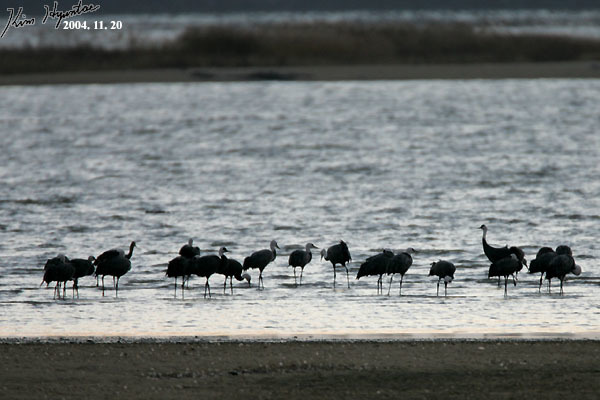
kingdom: Animalia
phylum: Chordata
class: Aves
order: Gruiformes
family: Gruidae
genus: Grus
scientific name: Grus monacha
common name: Hooded crane
